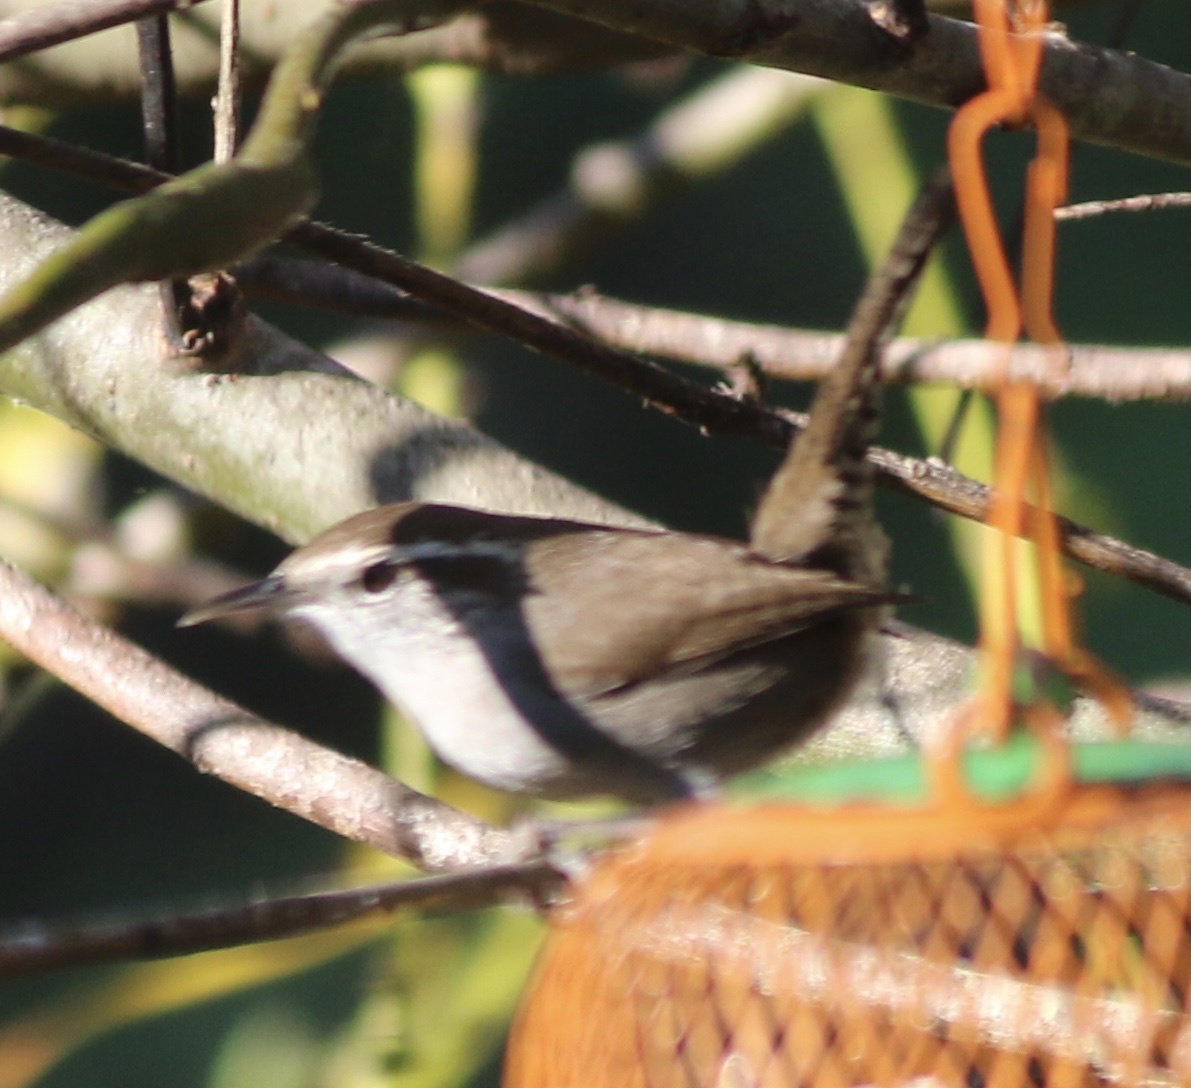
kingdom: Animalia
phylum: Chordata
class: Aves
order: Passeriformes
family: Troglodytidae
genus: Thryomanes
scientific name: Thryomanes bewickii
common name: Bewick's wren
